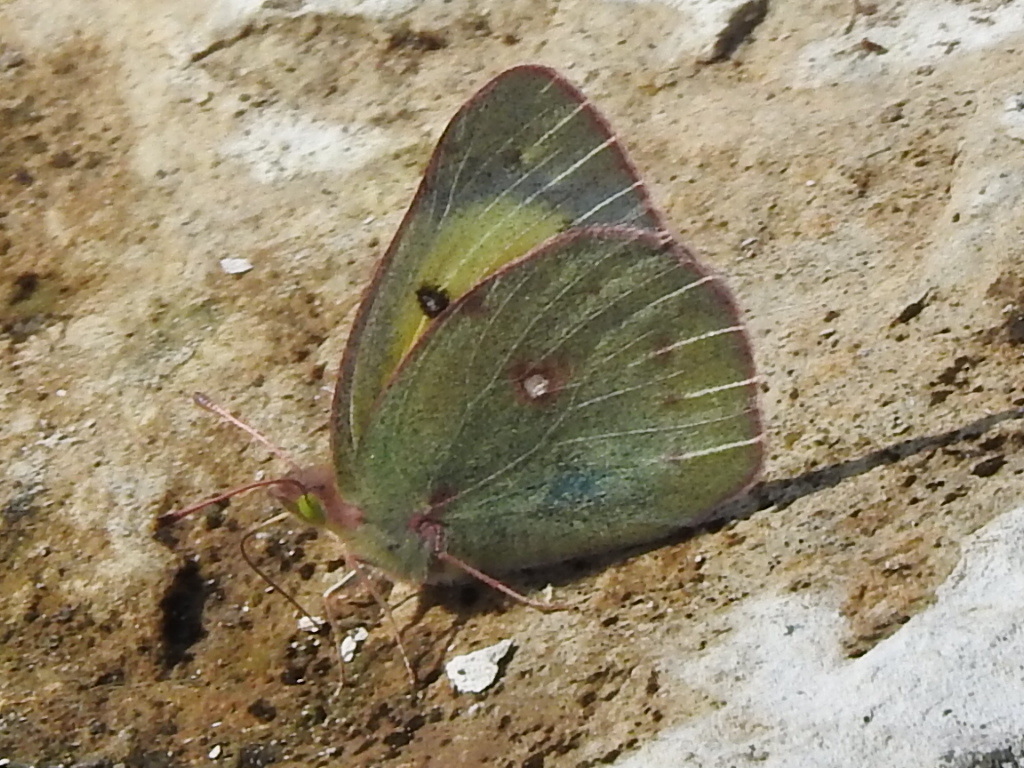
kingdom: Animalia
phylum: Arthropoda
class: Insecta
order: Lepidoptera
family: Pieridae
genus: Colias
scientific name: Colias eurytheme
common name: Alfalfa butterfly
